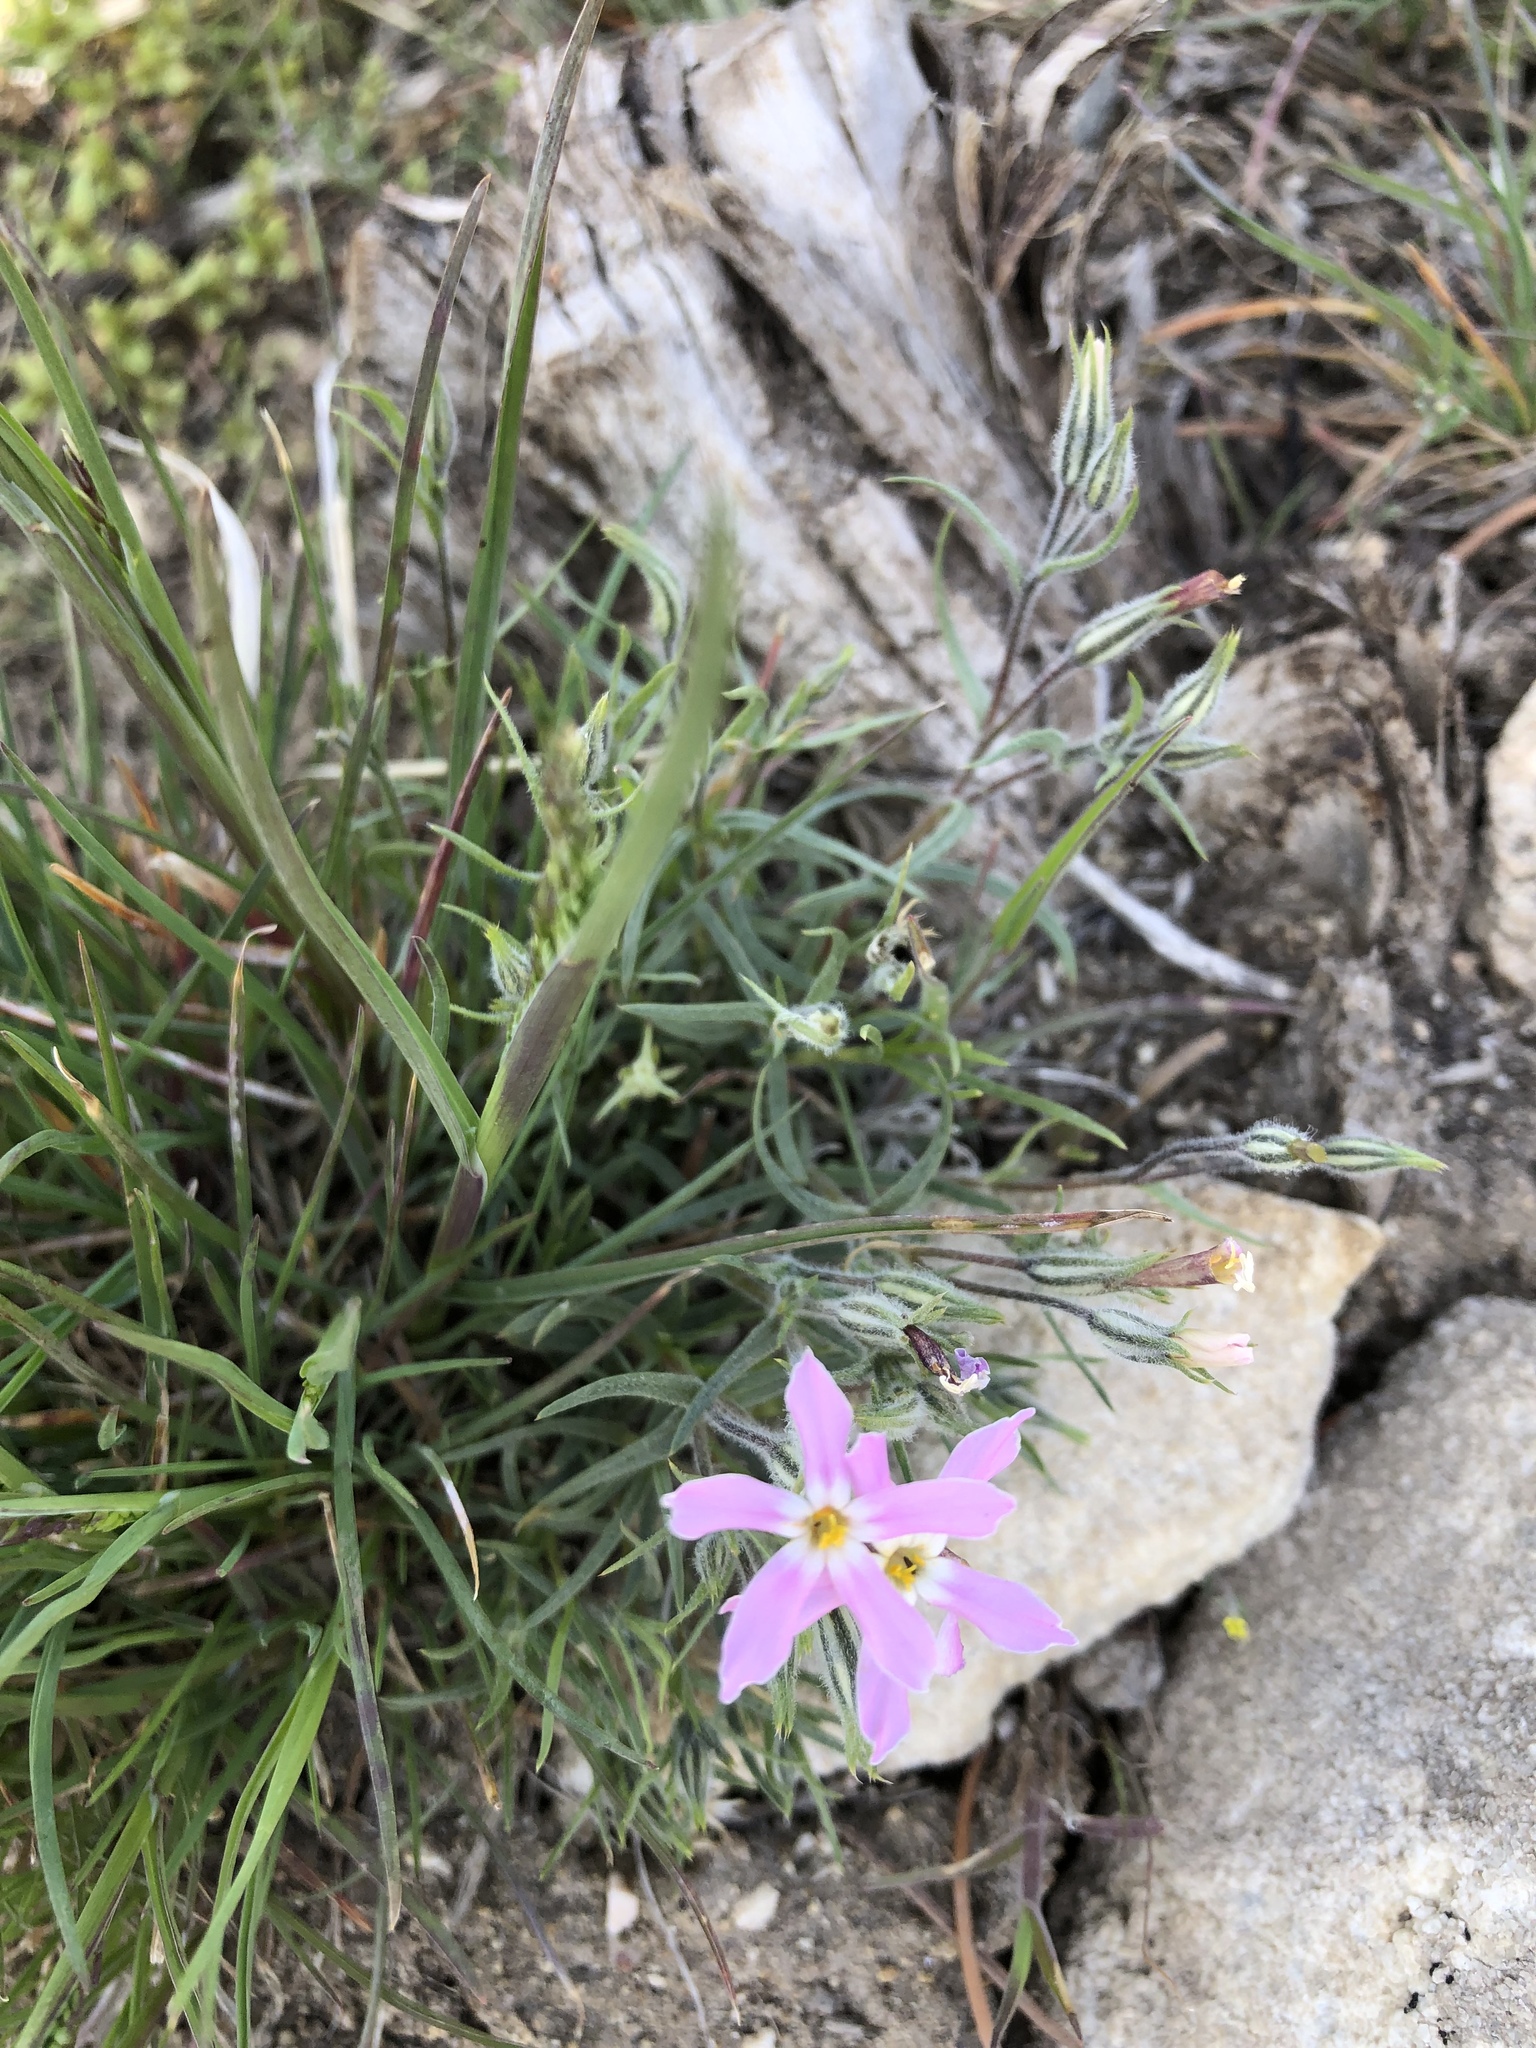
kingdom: Plantae
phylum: Tracheophyta
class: Magnoliopsida
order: Ericales
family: Polemoniaceae
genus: Phlox
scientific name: Phlox longifolia
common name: Longleaf phlox
